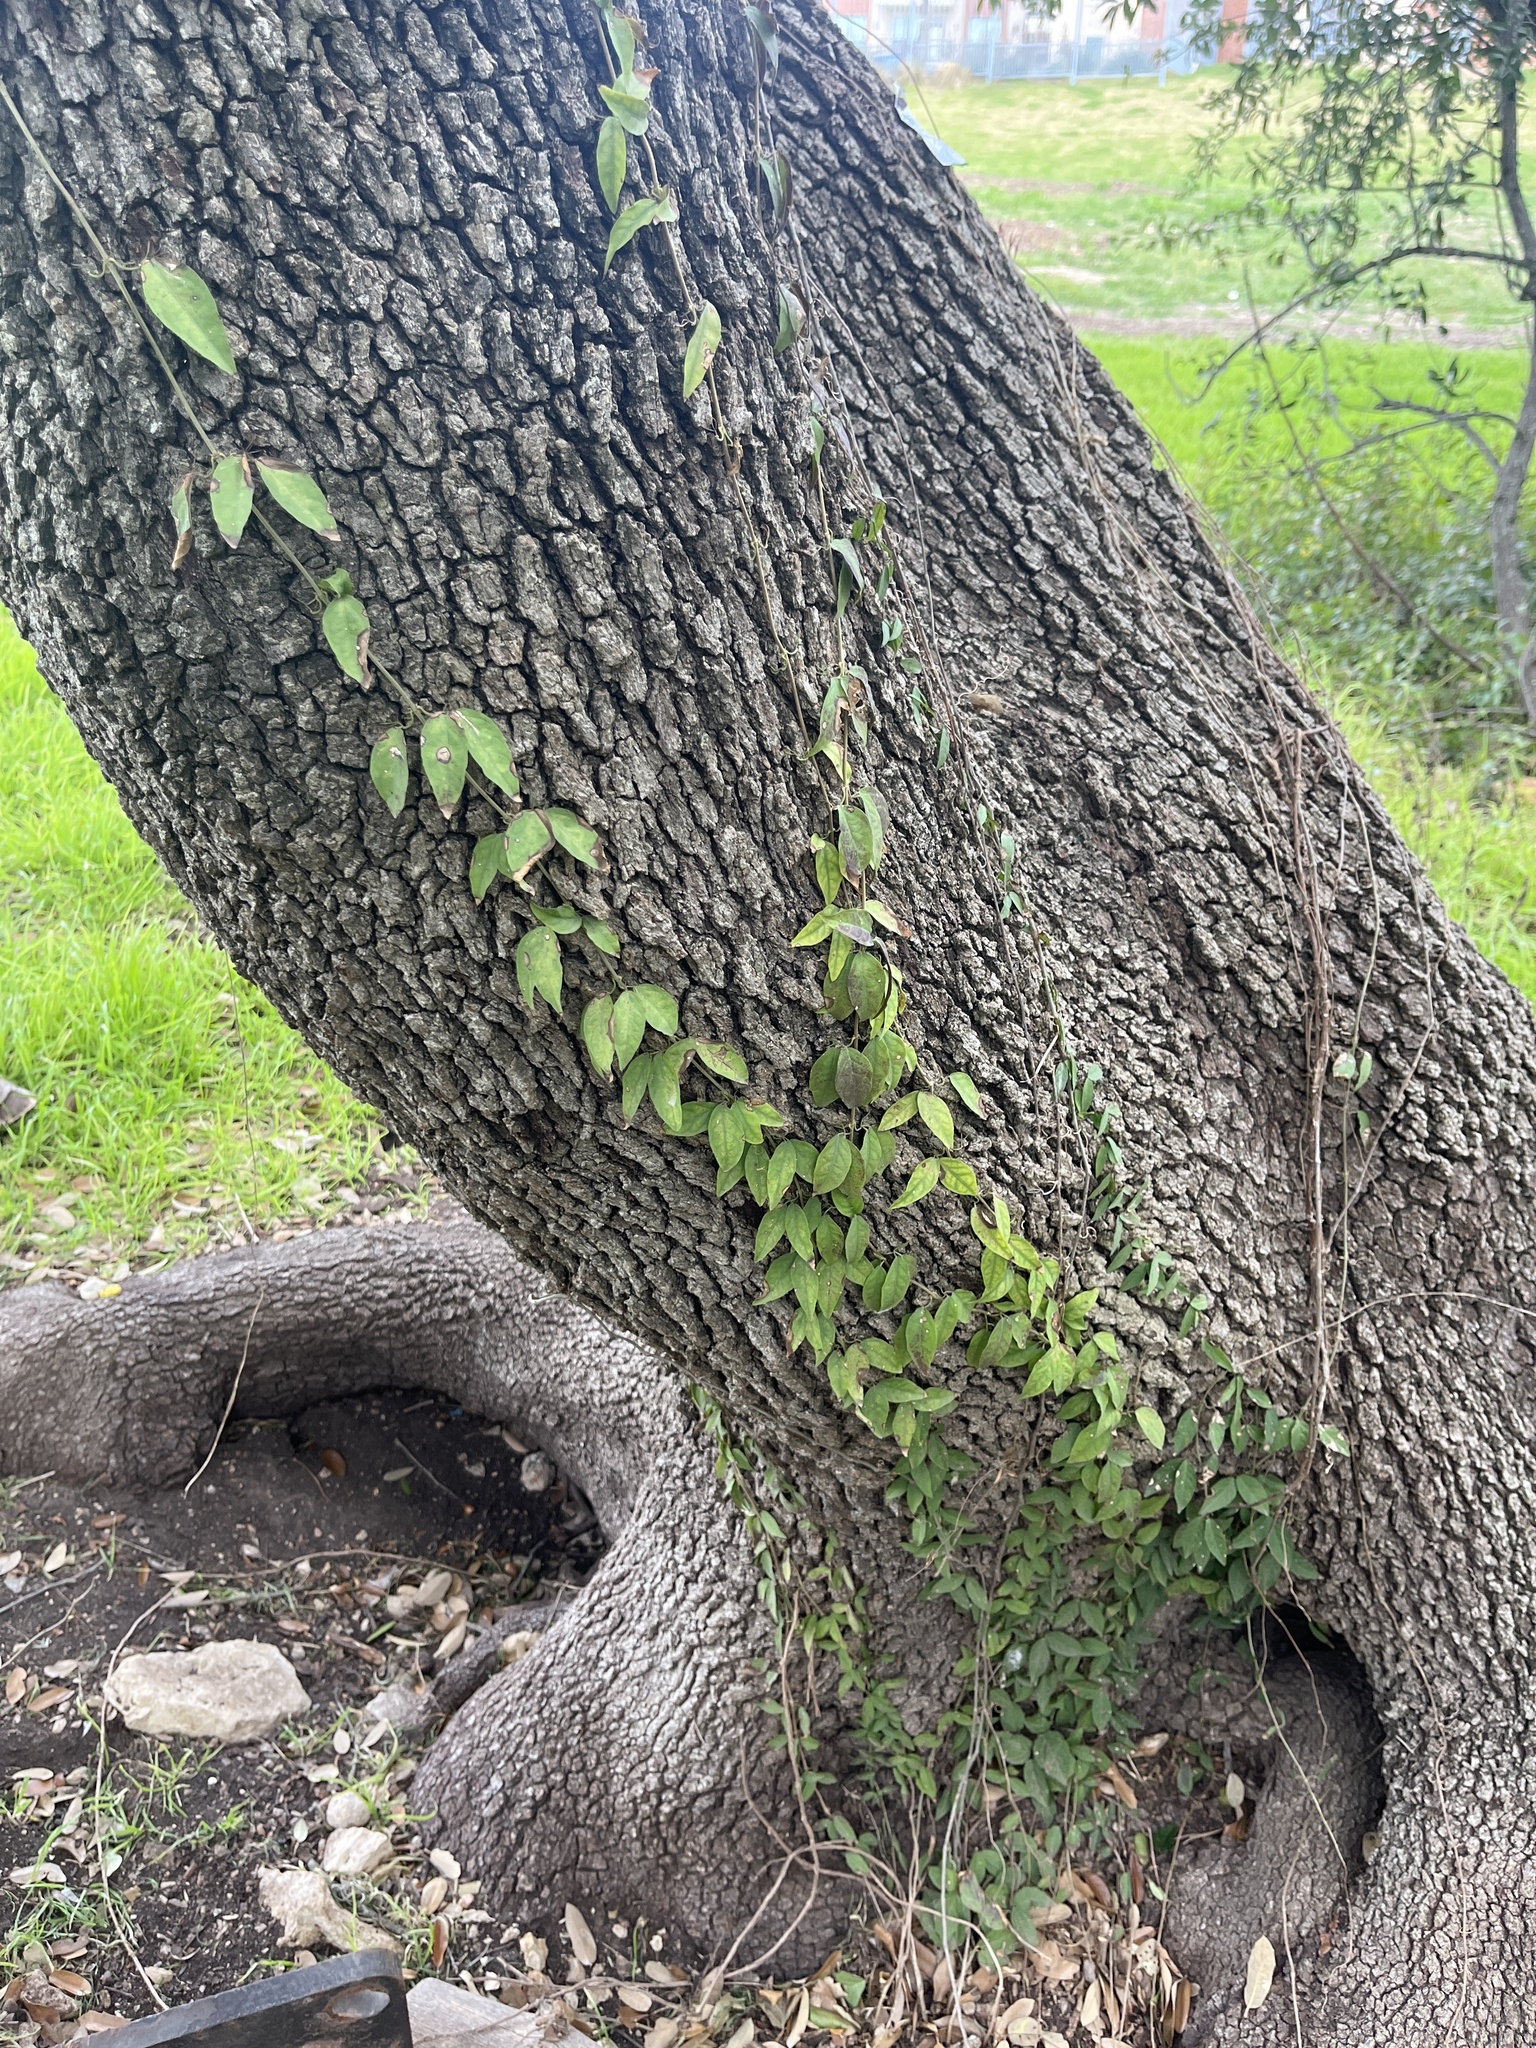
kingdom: Plantae
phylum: Tracheophyta
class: Magnoliopsida
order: Lamiales
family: Bignoniaceae
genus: Dolichandra
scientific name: Dolichandra unguis-cati
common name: Catclaw vine
